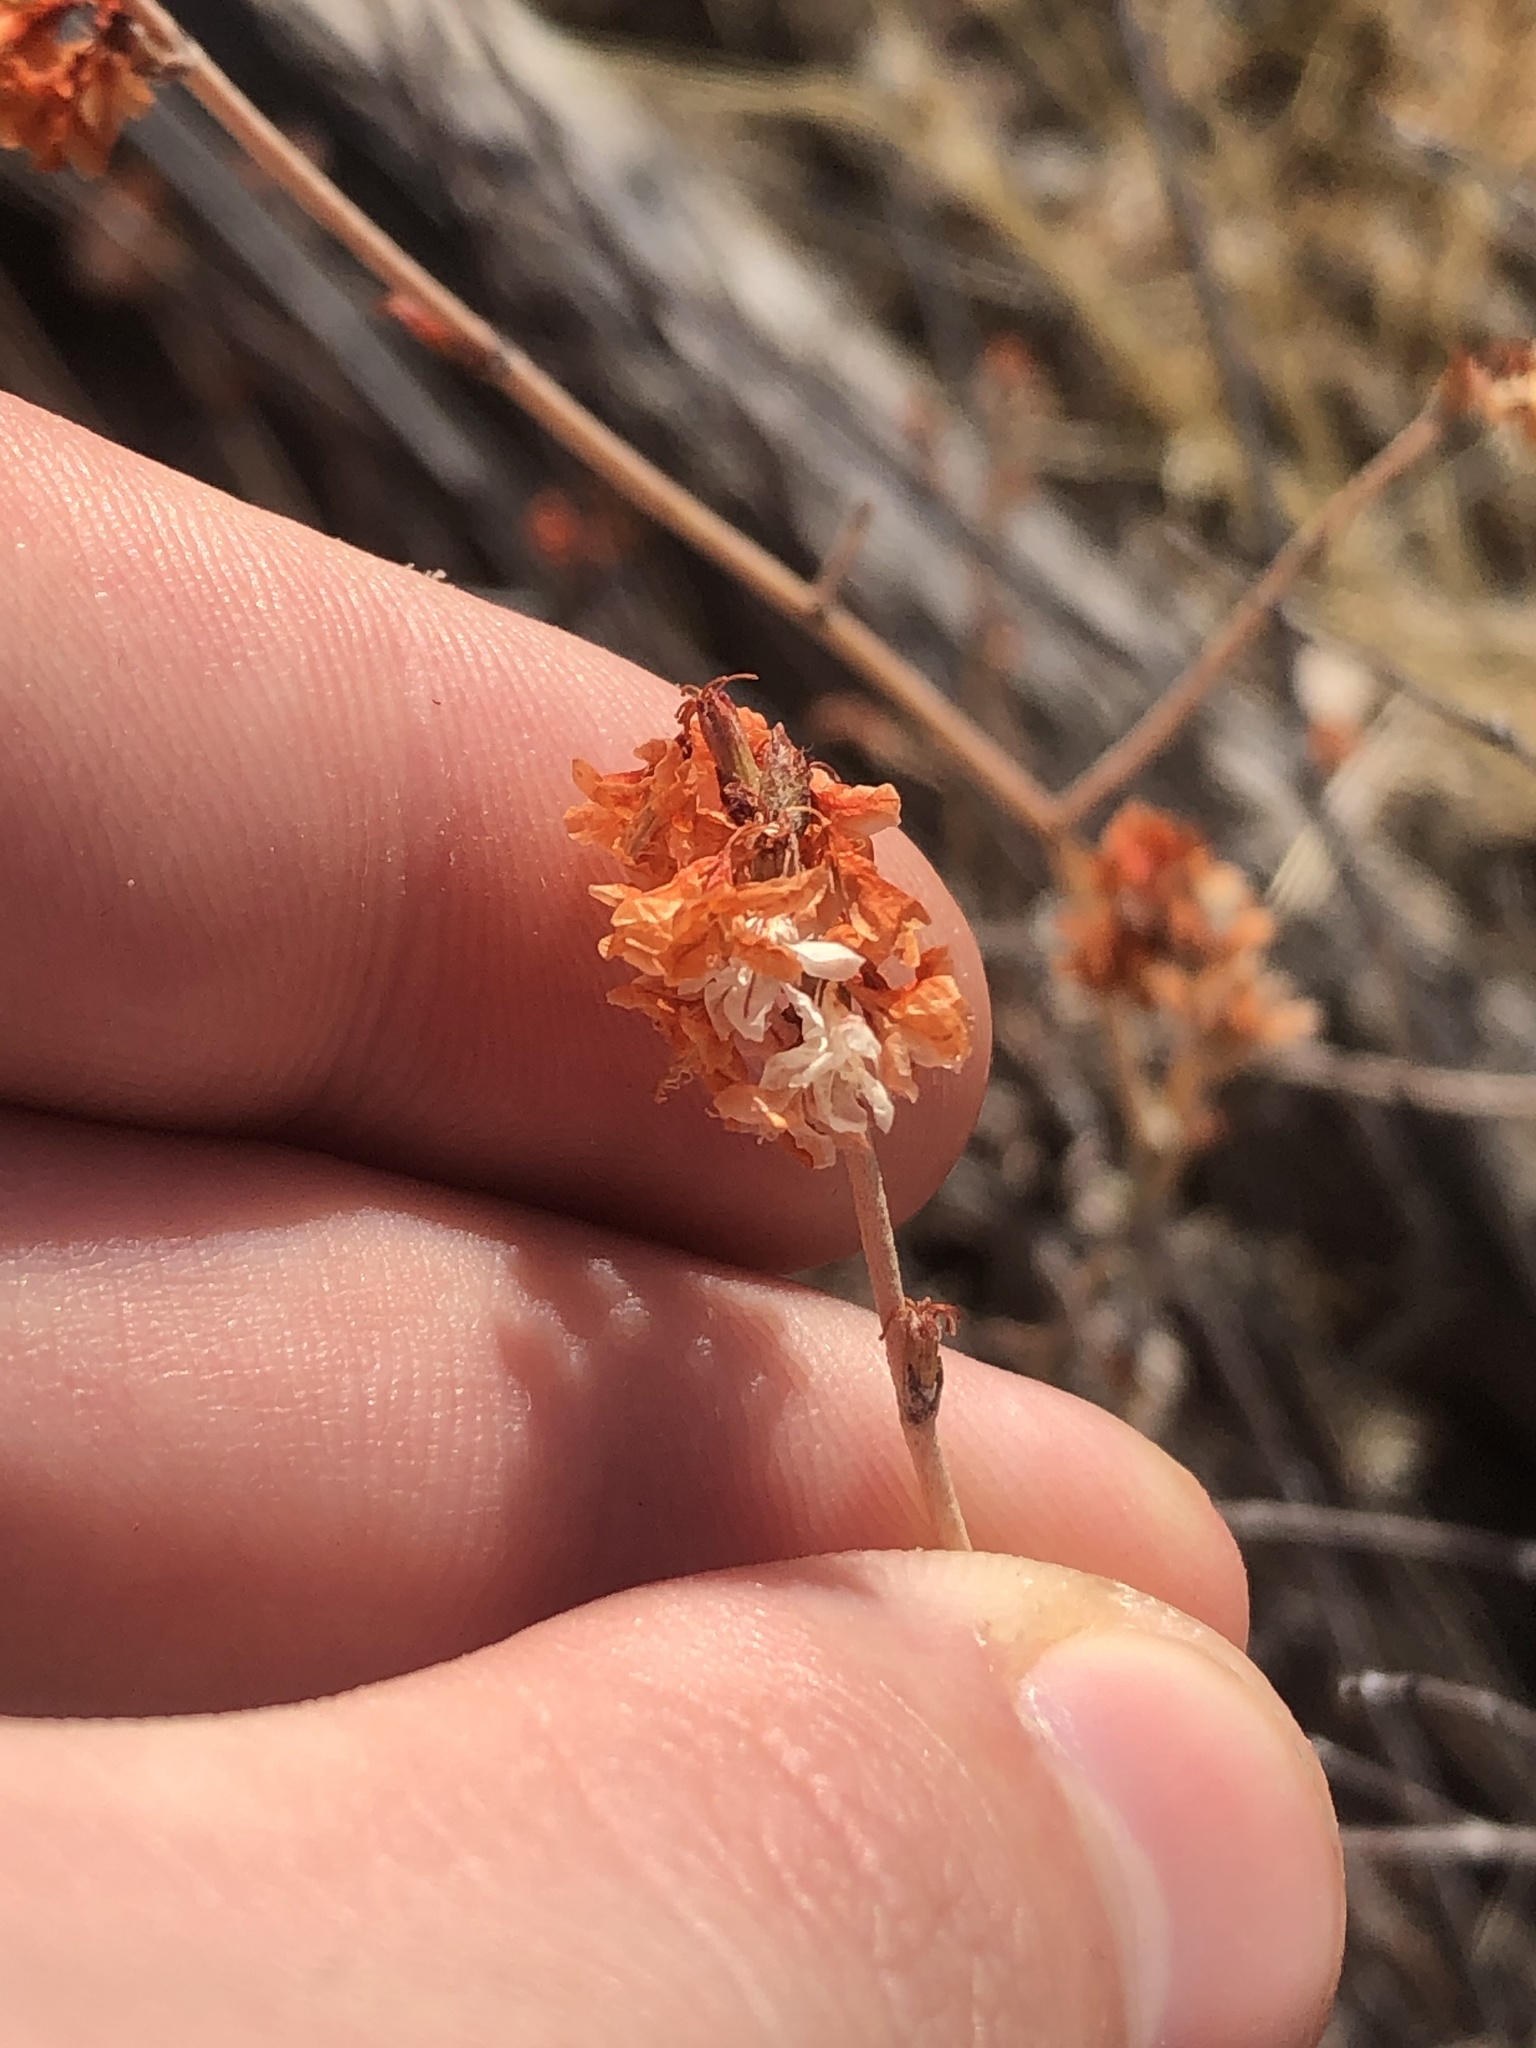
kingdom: Plantae
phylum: Tracheophyta
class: Magnoliopsida
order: Caryophyllales
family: Polygonaceae
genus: Eriogonum
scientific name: Eriogonum wrightii
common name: Bastard-sage
